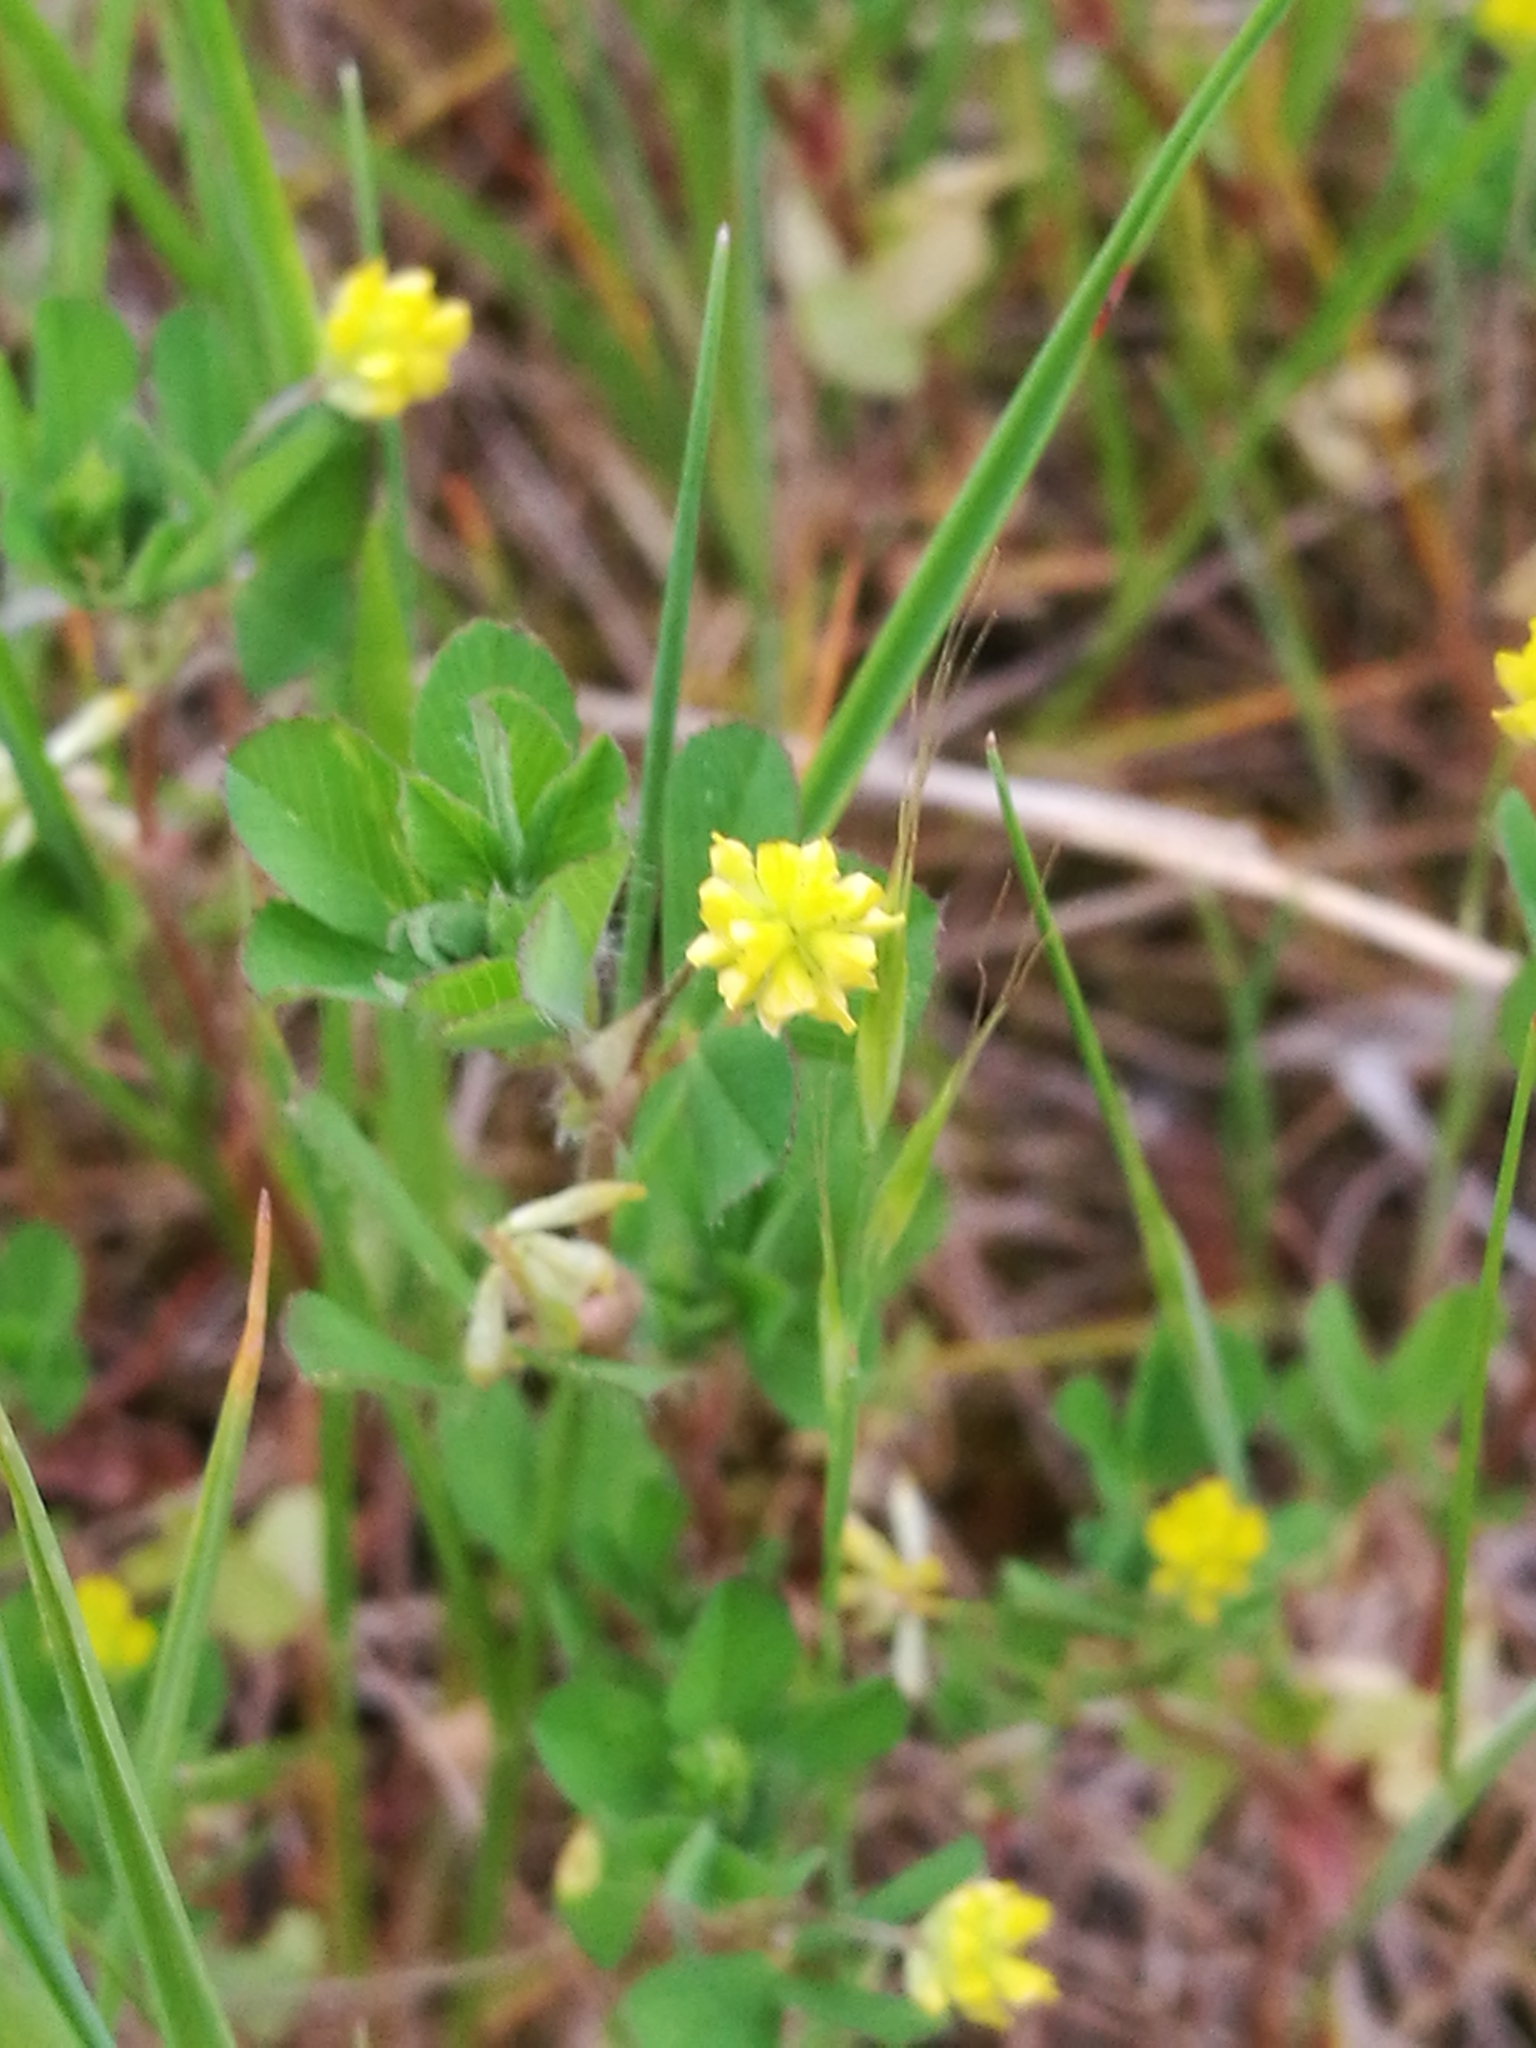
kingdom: Plantae
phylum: Tracheophyta
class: Magnoliopsida
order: Fabales
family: Fabaceae
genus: Trifolium
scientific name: Trifolium dubium
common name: Suckling clover
